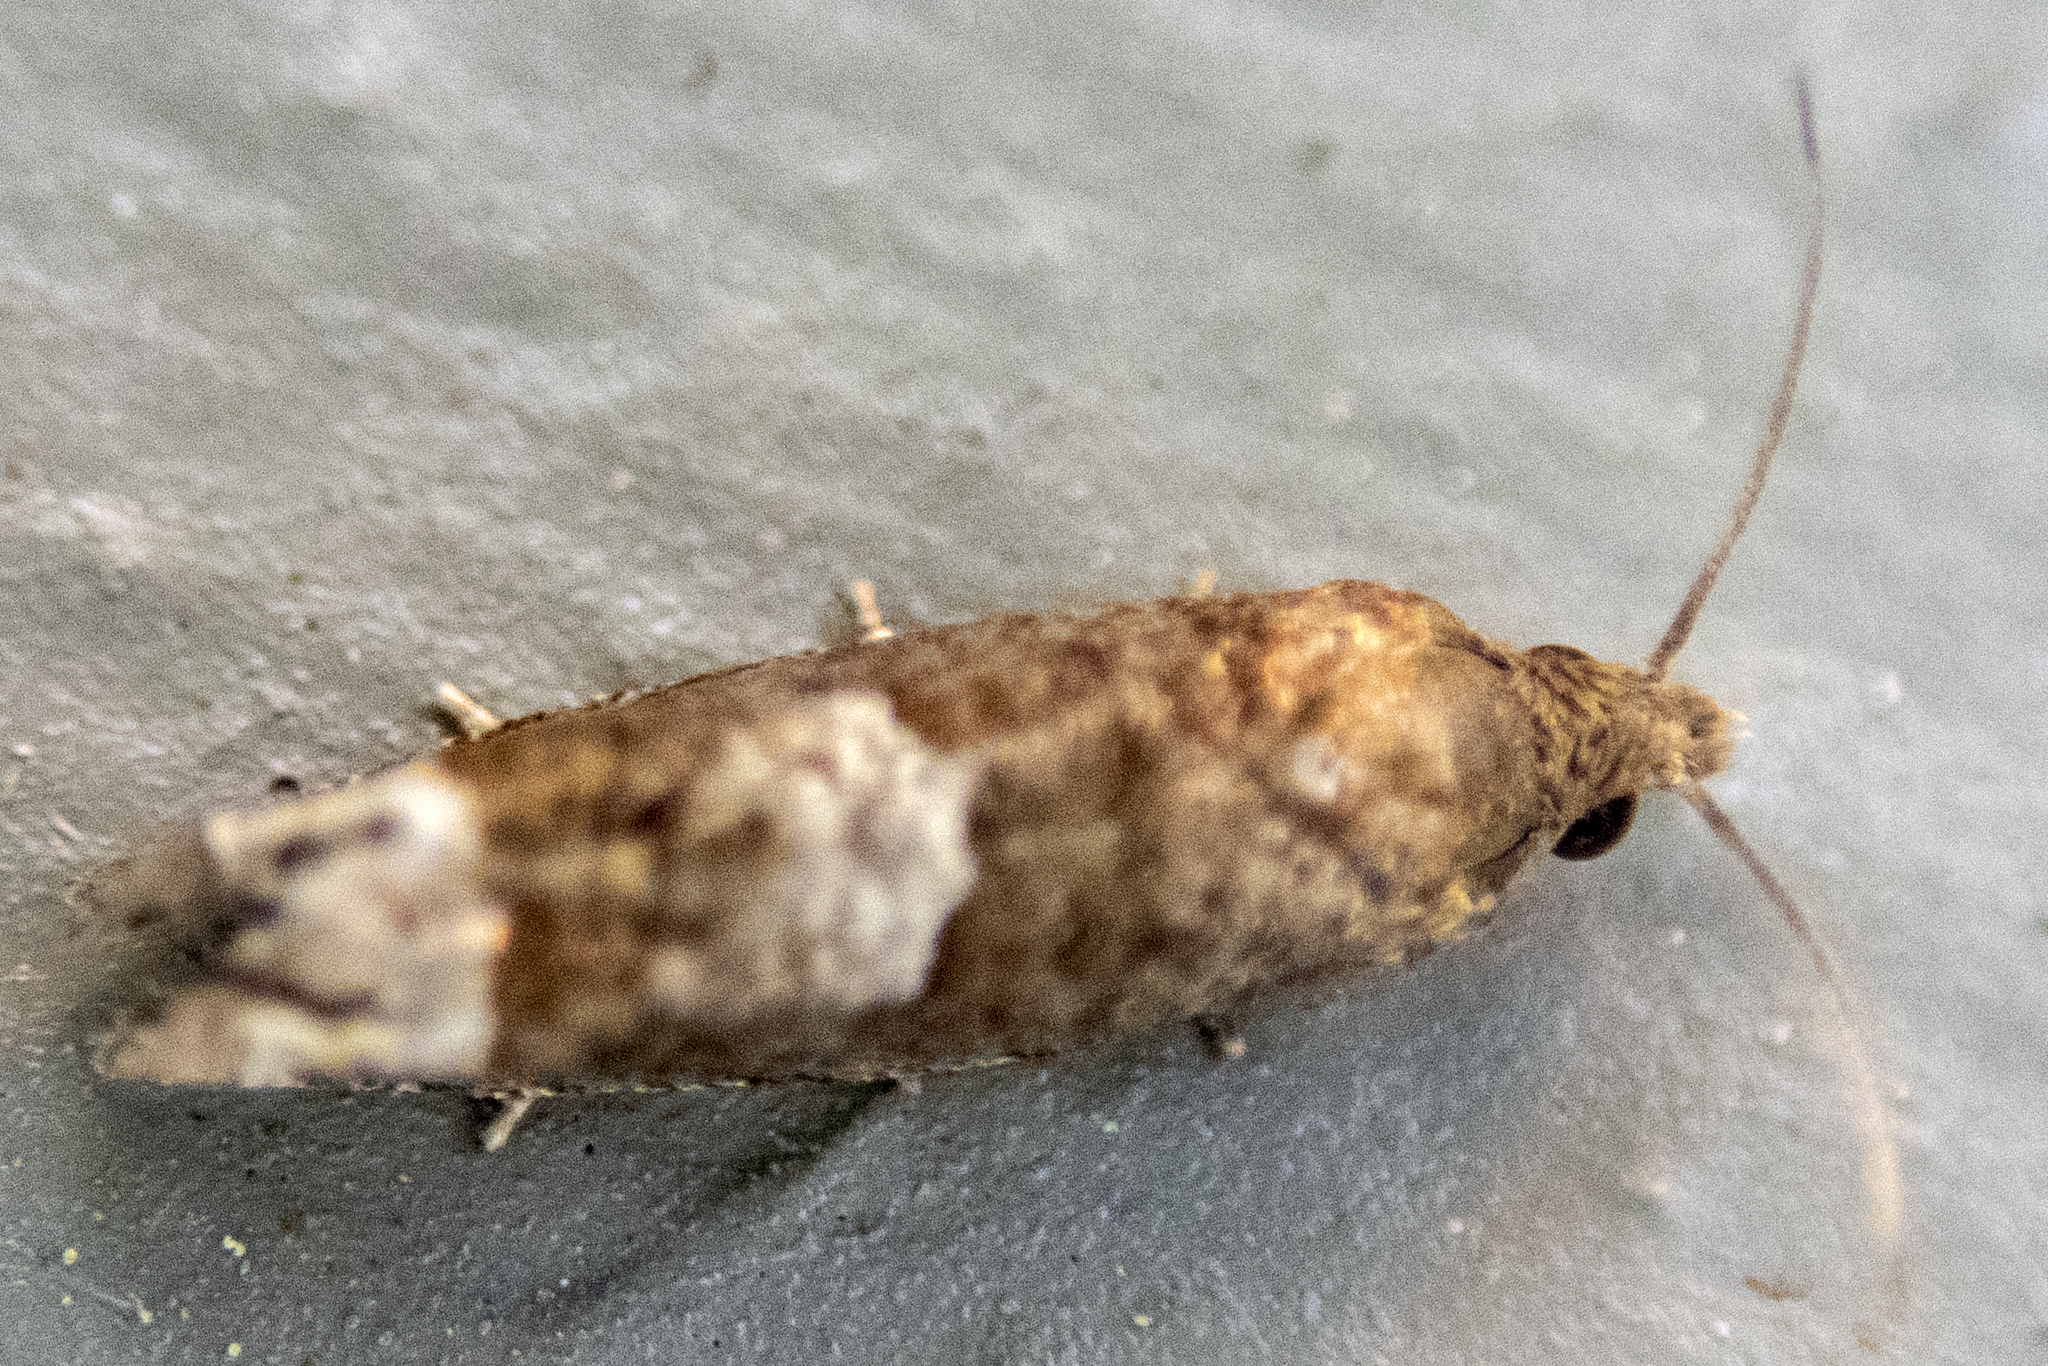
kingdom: Animalia
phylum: Arthropoda
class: Insecta
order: Lepidoptera
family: Tortricidae
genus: Eucosma
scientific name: Eucosma parmatana
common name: Aster eucosma moth
